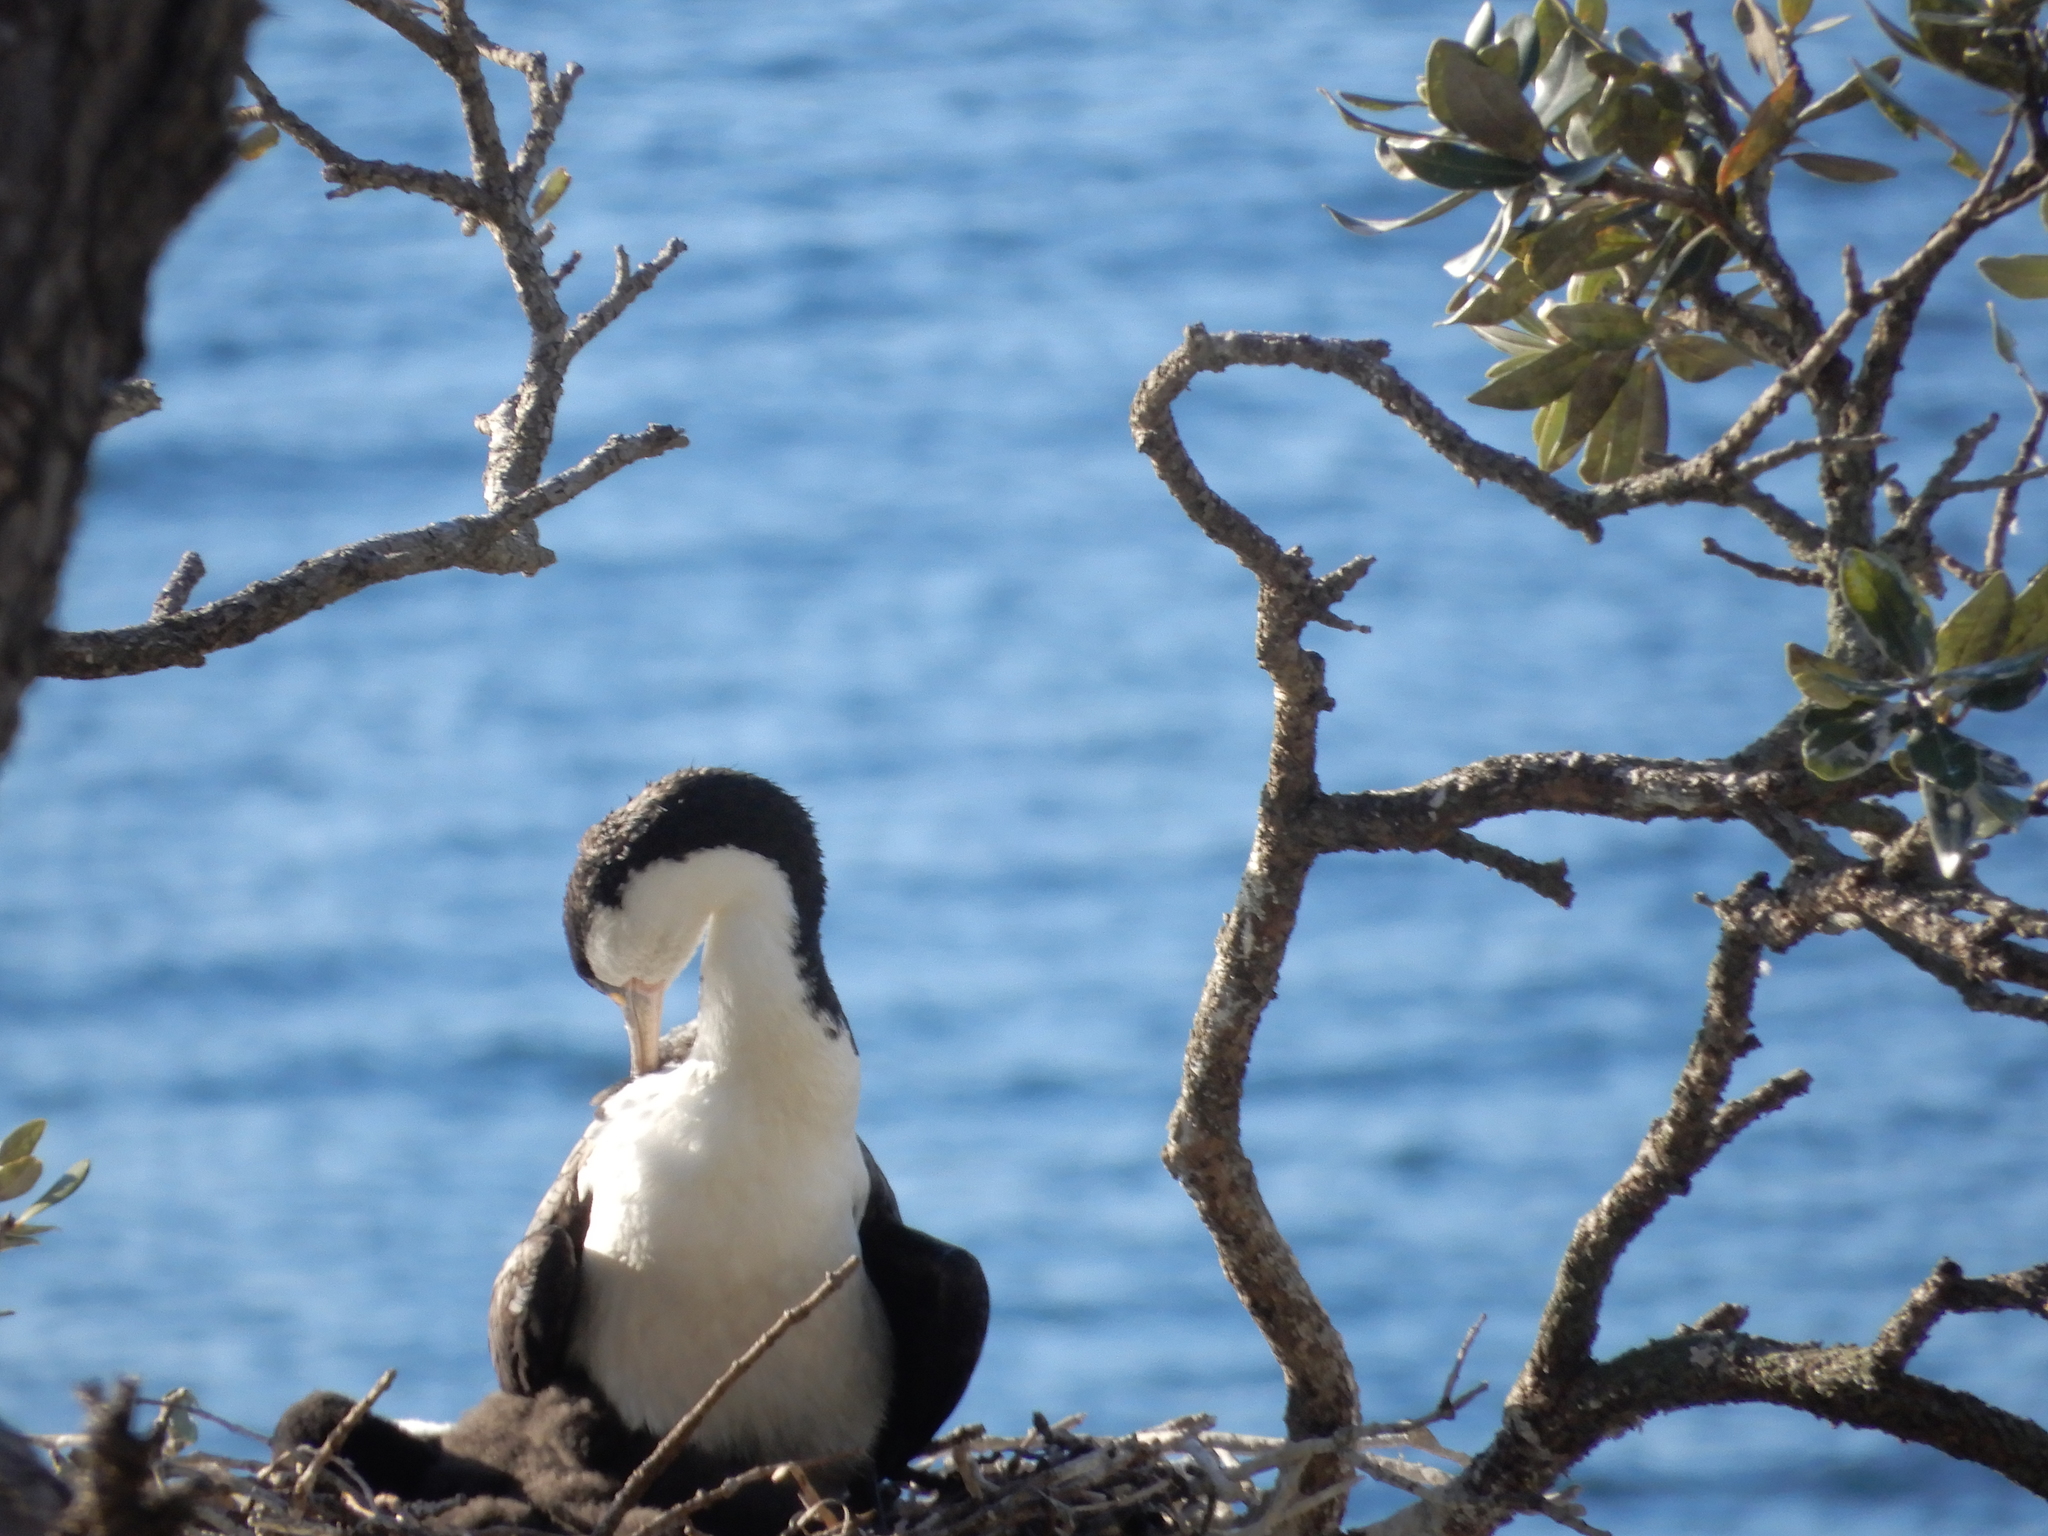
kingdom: Animalia
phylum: Chordata
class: Aves
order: Suliformes
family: Phalacrocoracidae
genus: Phalacrocorax
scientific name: Phalacrocorax varius
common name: Pied cormorant
